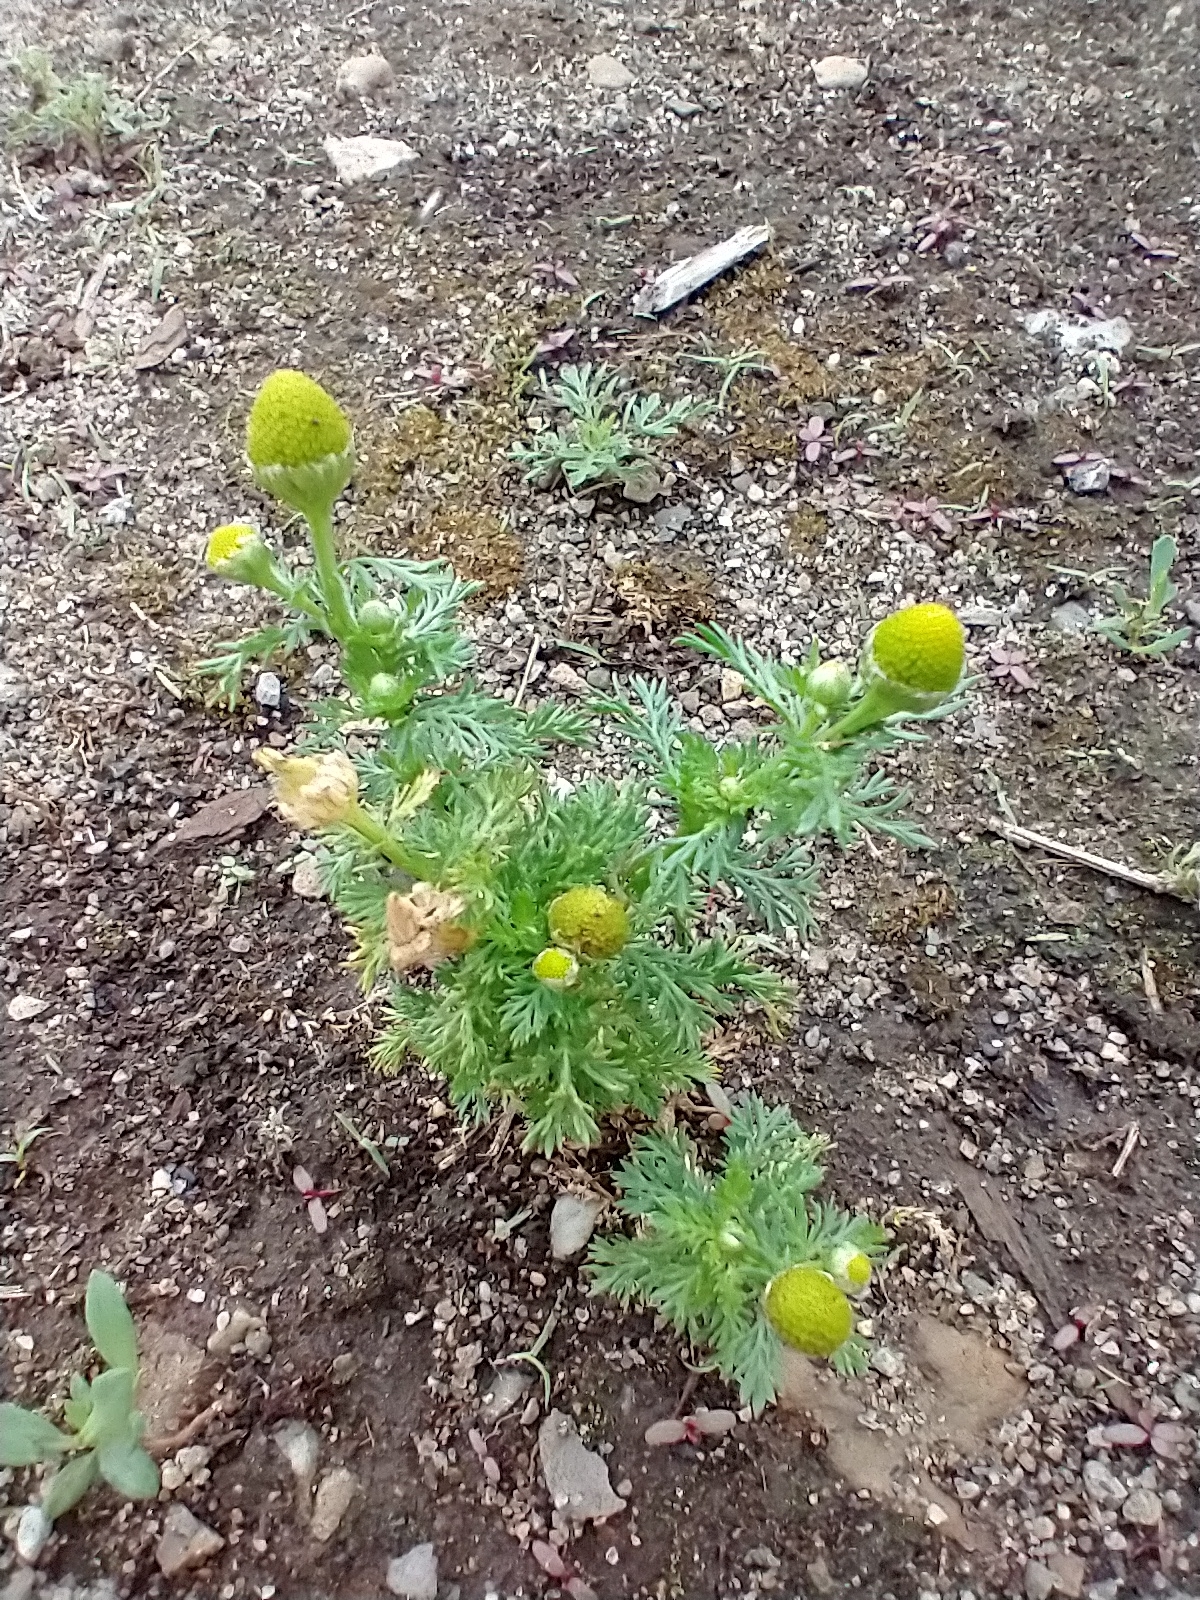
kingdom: Plantae
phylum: Tracheophyta
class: Magnoliopsida
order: Asterales
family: Asteraceae
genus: Matricaria
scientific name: Matricaria discoidea
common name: Disc mayweed
